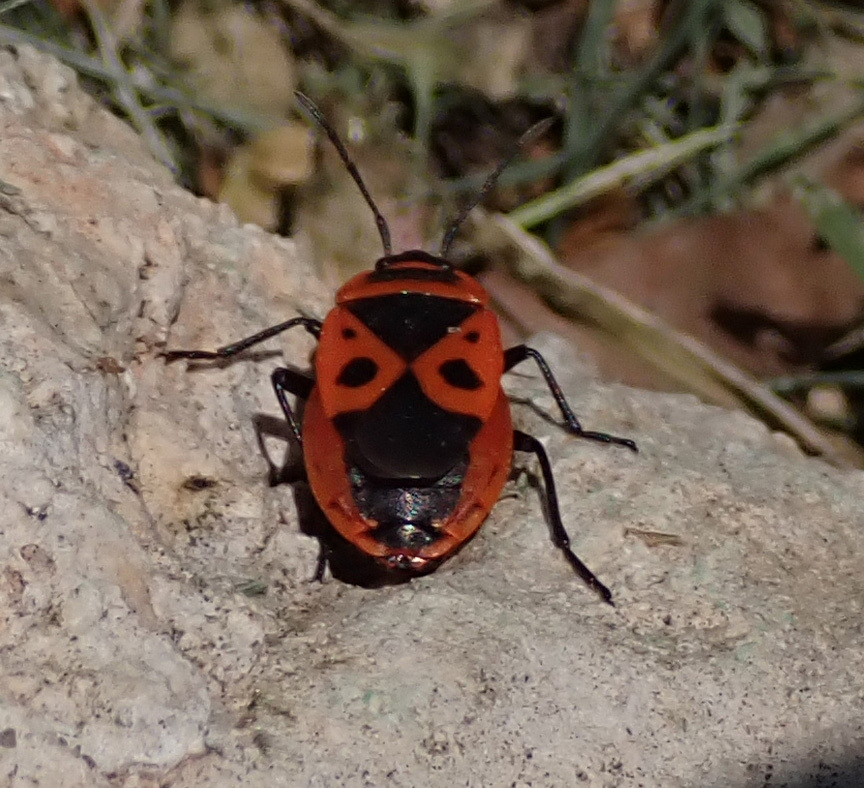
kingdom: Animalia
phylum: Arthropoda
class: Insecta
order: Hemiptera
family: Pyrrhocoridae
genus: Pyrrhocoris
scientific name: Pyrrhocoris apterus
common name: Firebug
